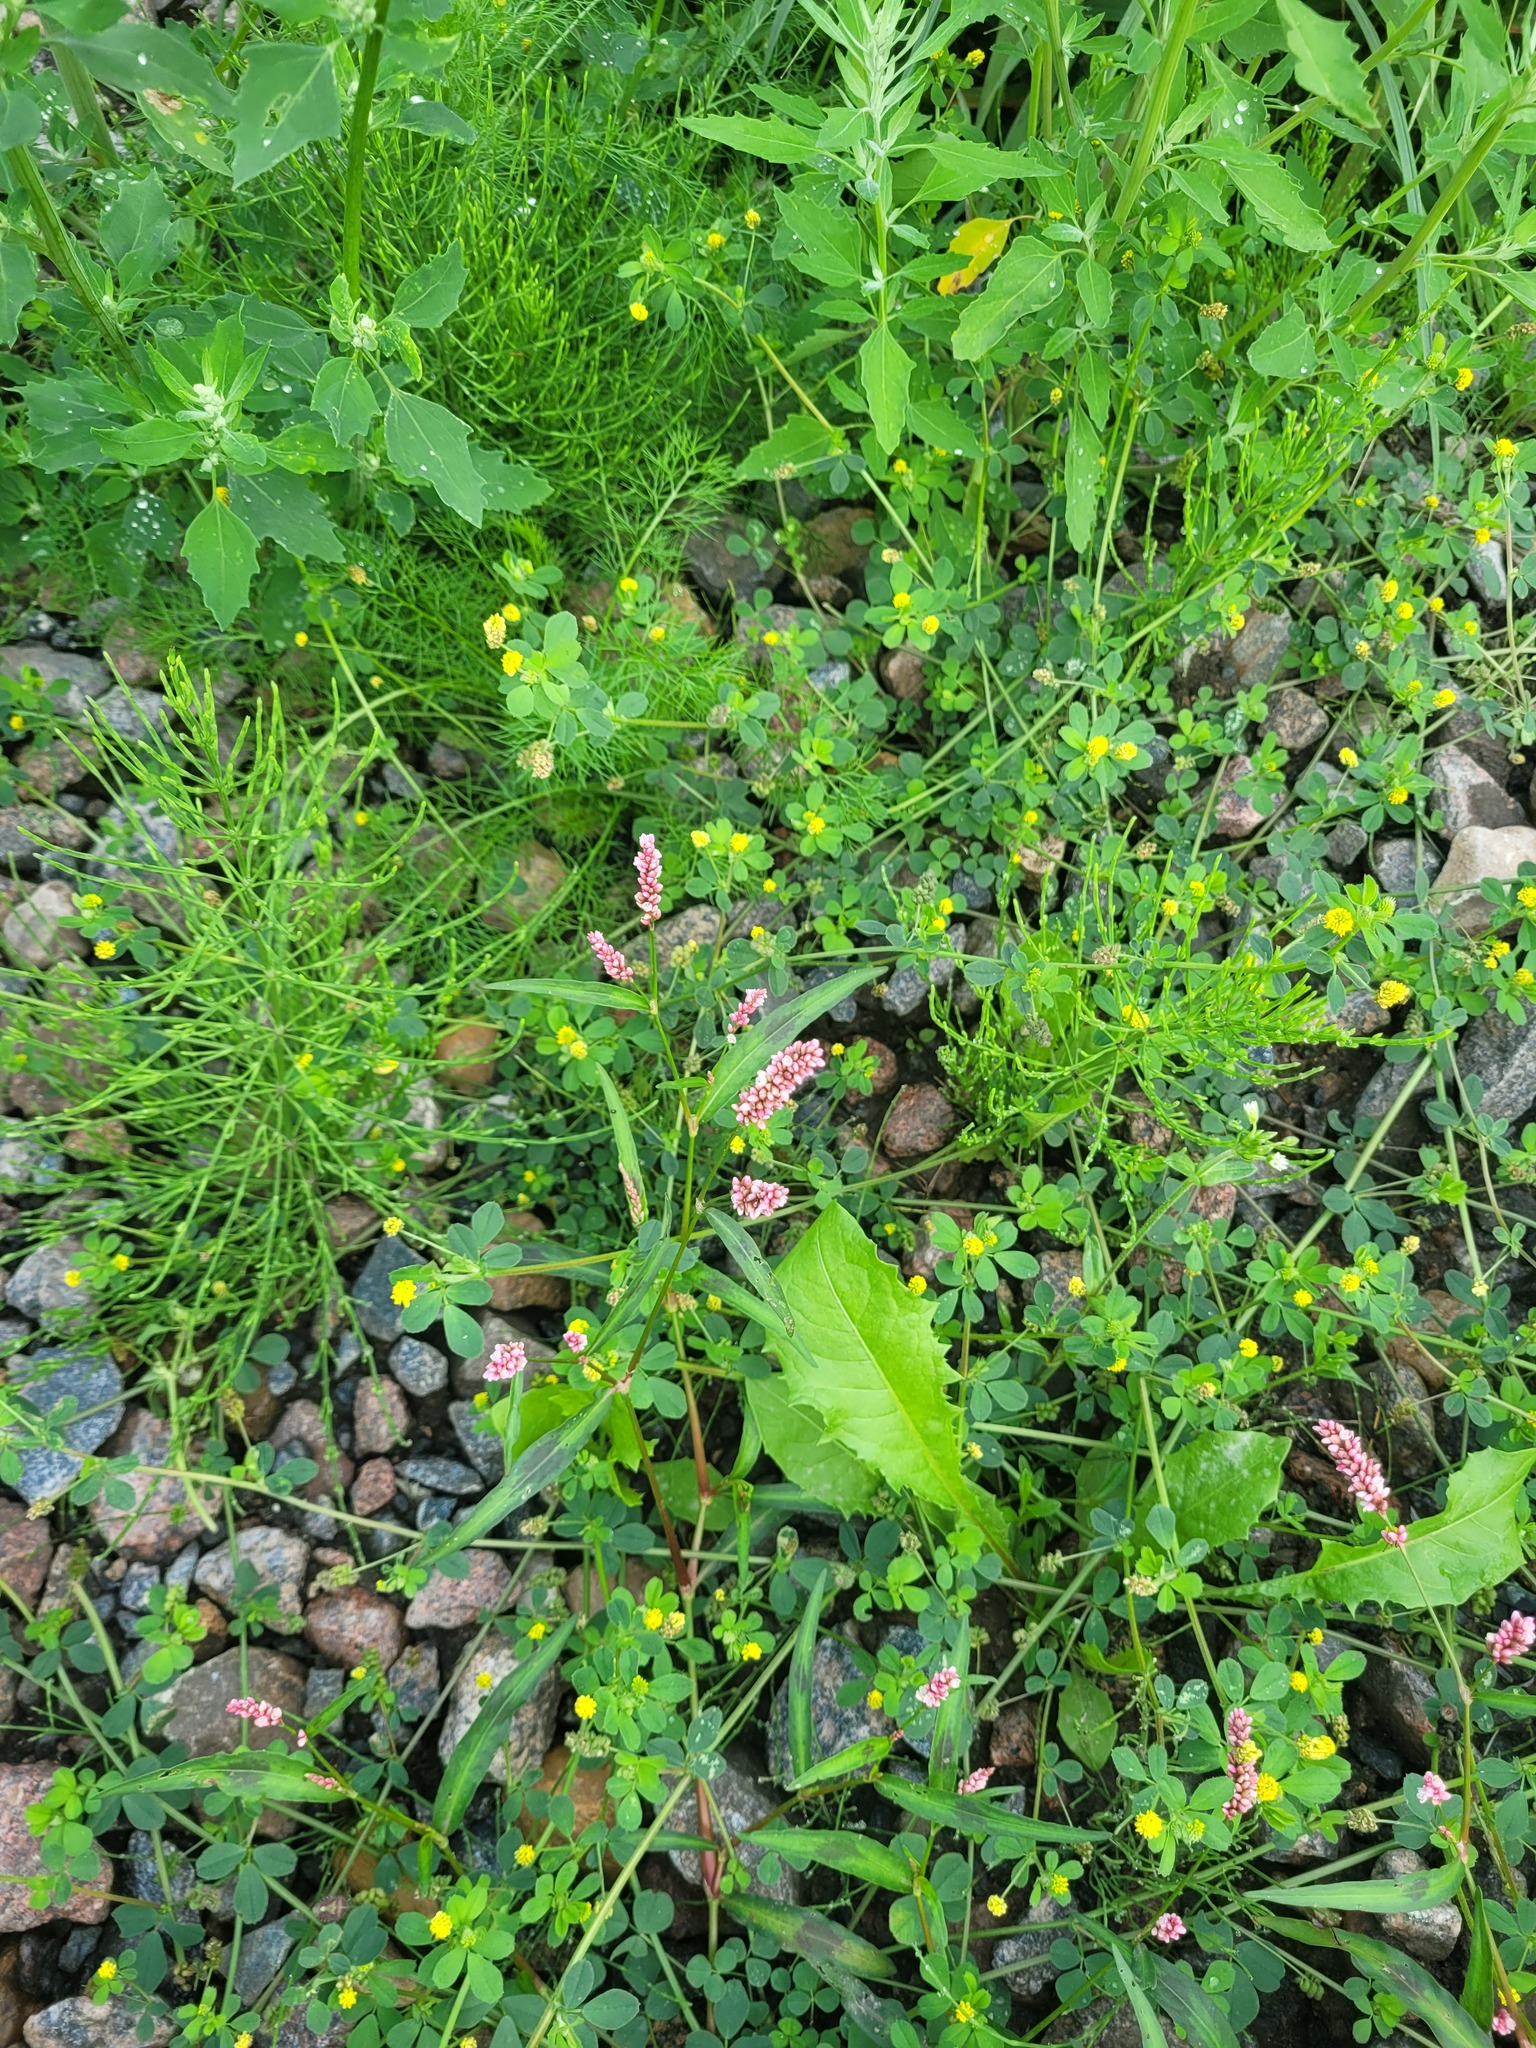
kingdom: Plantae
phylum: Tracheophyta
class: Magnoliopsida
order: Caryophyllales
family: Polygonaceae
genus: Persicaria
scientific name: Persicaria maculosa
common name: Redshank
